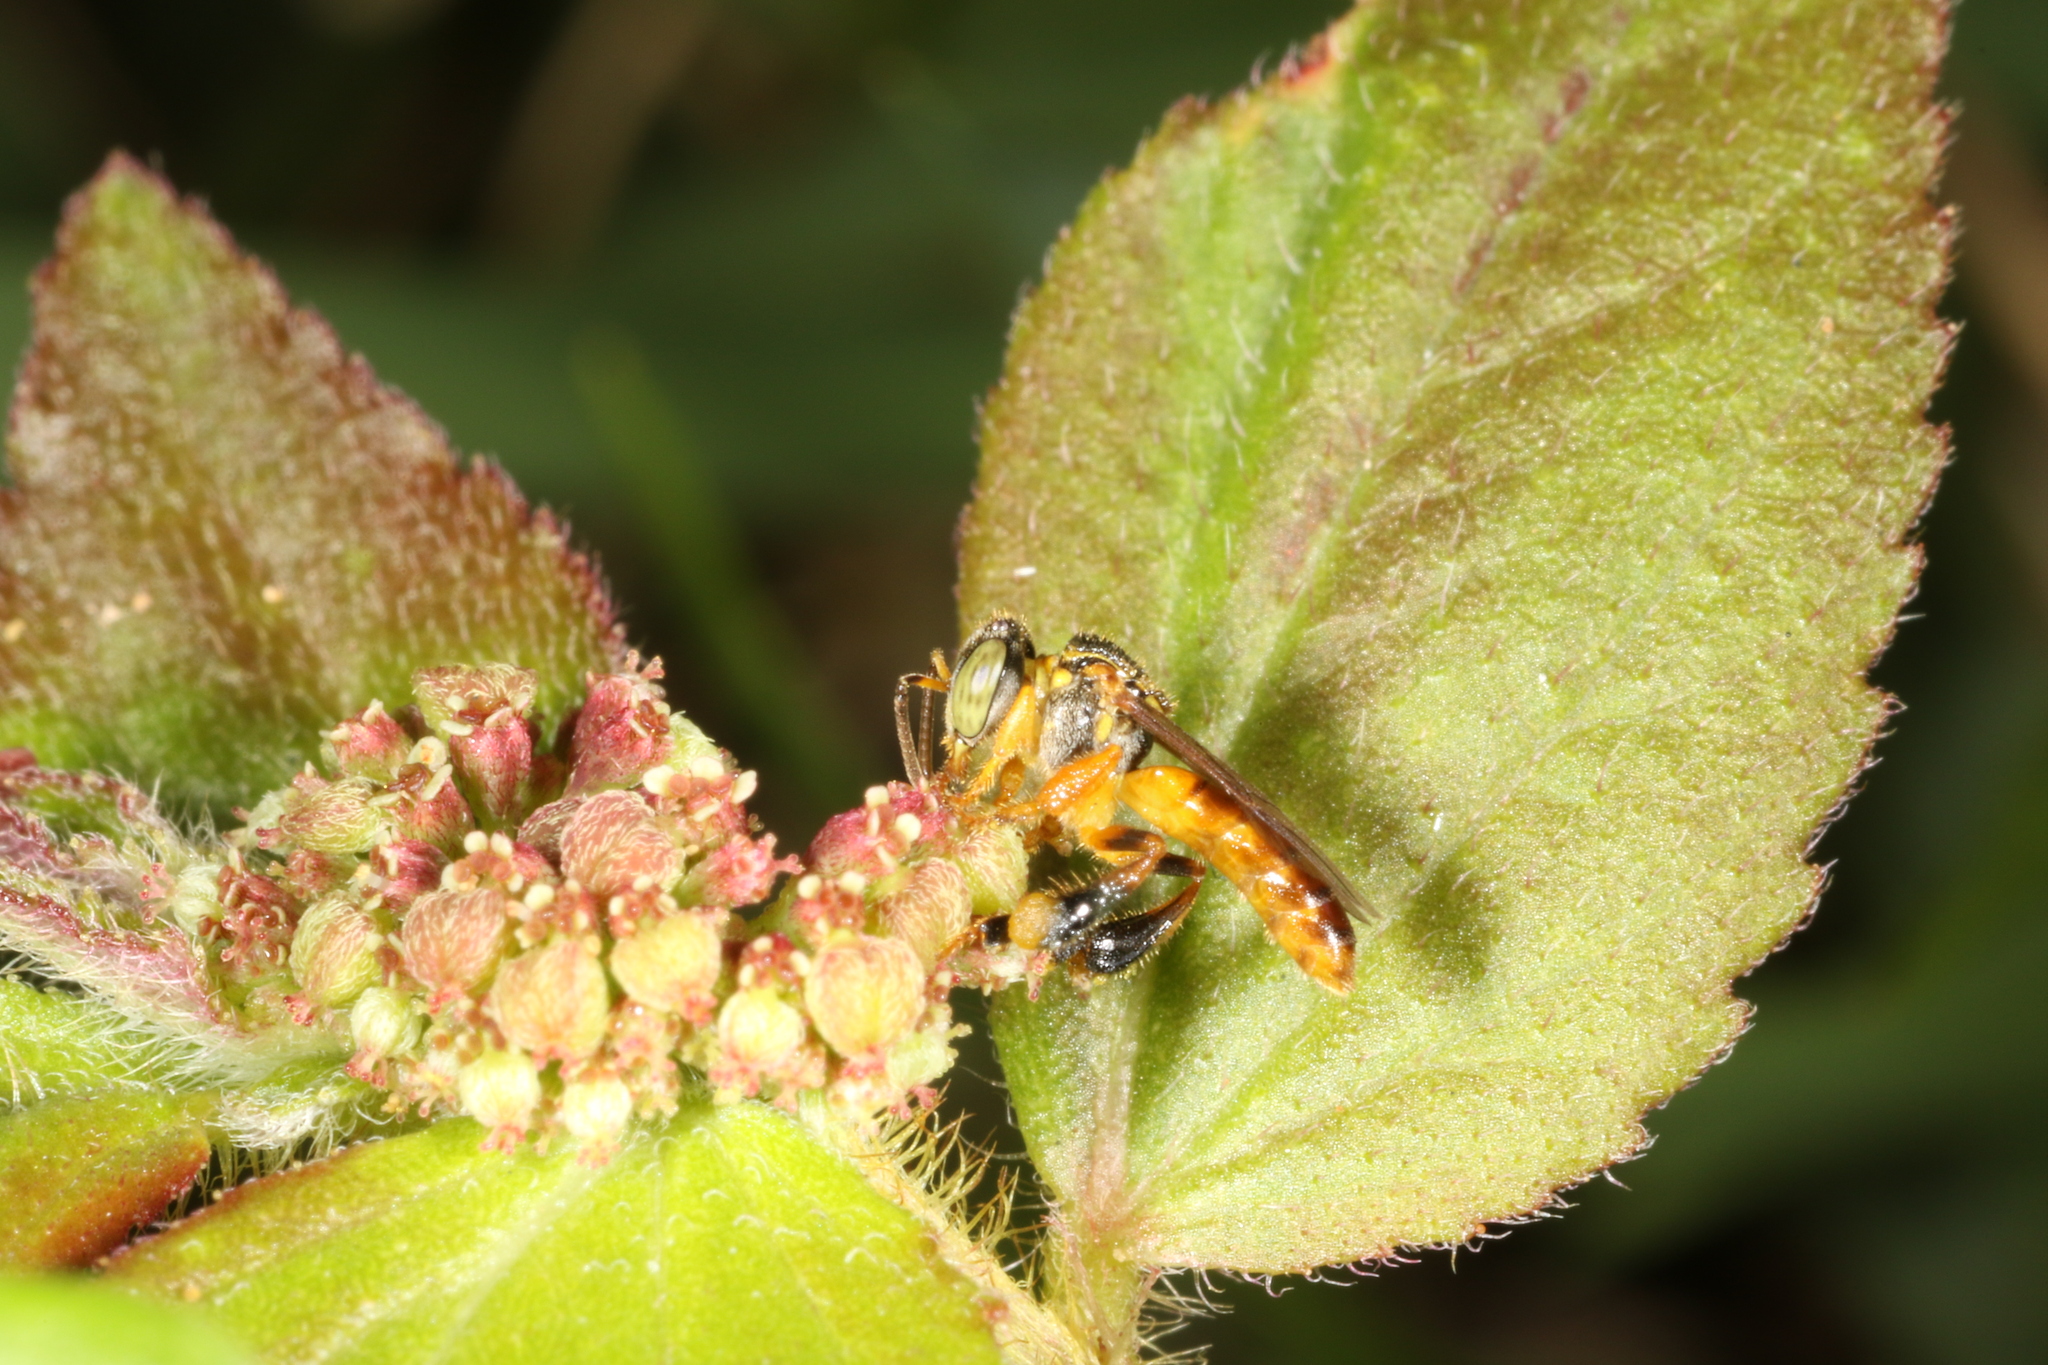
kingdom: Animalia
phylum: Arthropoda
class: Insecta
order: Hymenoptera
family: Apidae
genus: Tetragonisca
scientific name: Tetragonisca angustula
